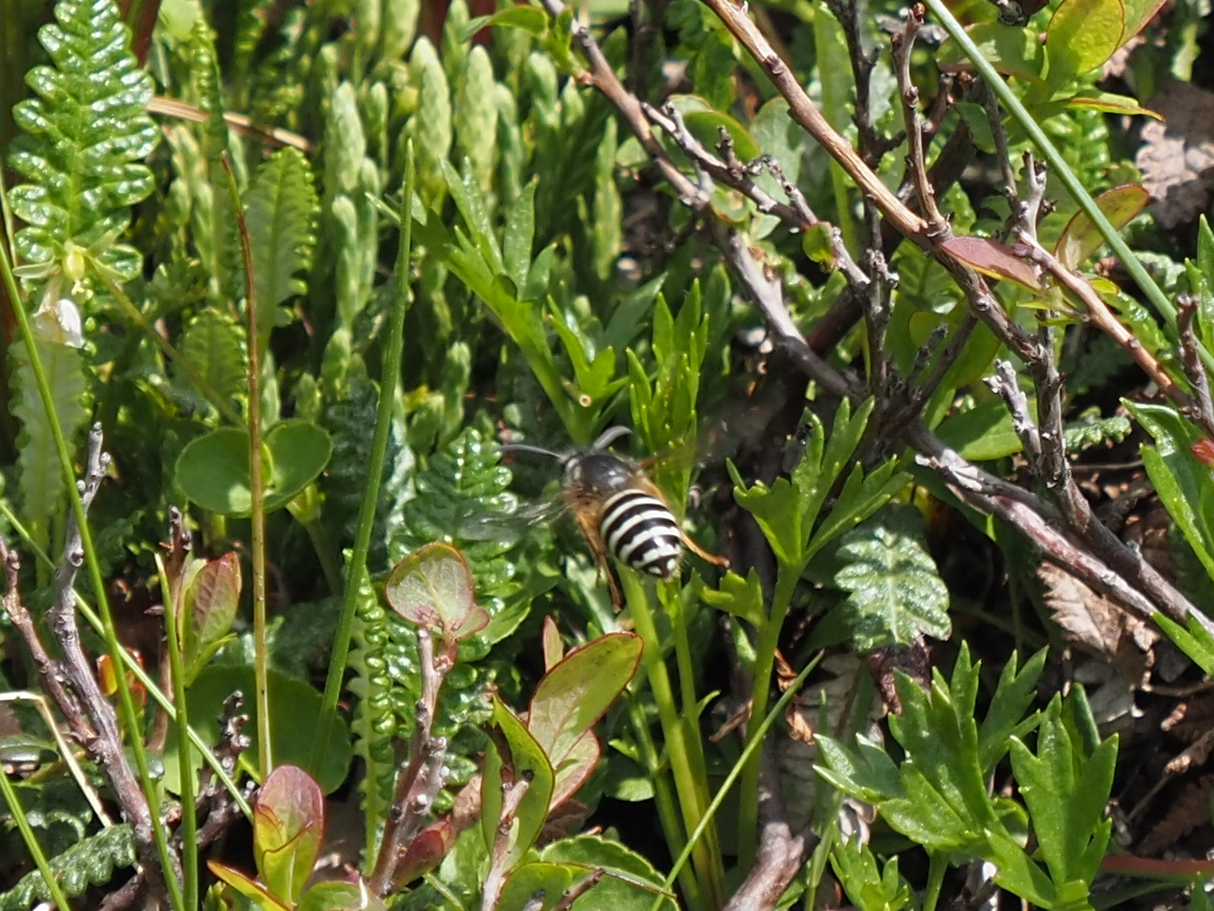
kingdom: Animalia
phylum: Arthropoda
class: Insecta
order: Hymenoptera
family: Vespidae
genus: Dolichovespula
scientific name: Dolichovespula norwegica
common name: Norwegian wasp
